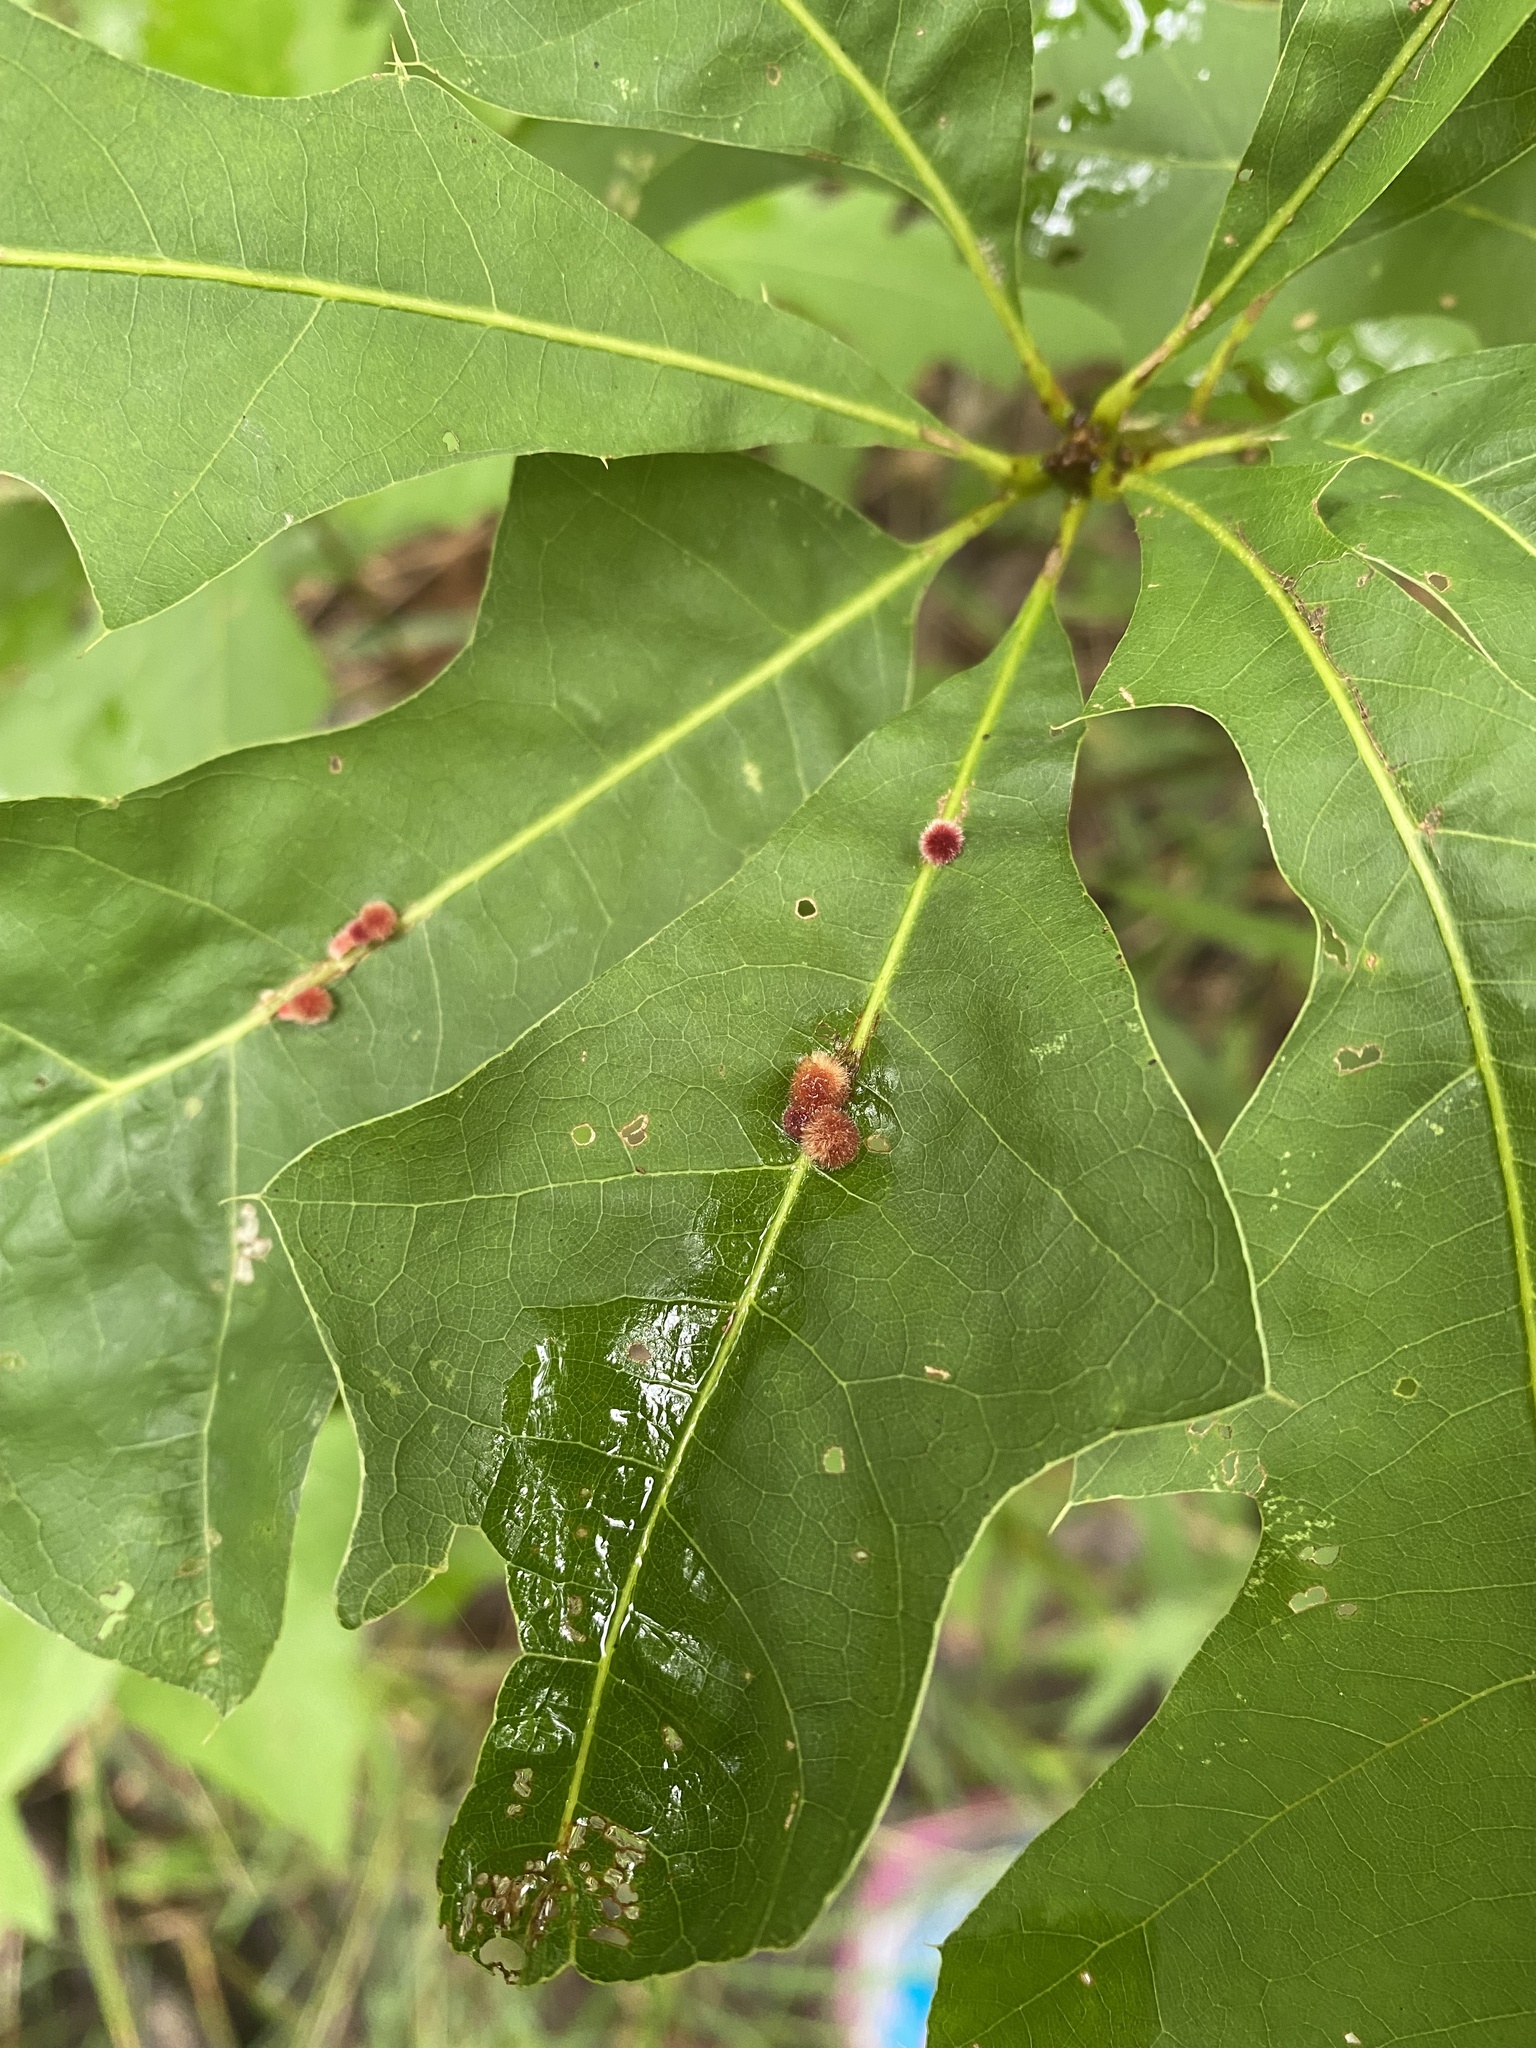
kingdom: Animalia
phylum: Arthropoda
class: Insecta
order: Hymenoptera
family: Cynipidae
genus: Callirhytis
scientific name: Callirhytis
